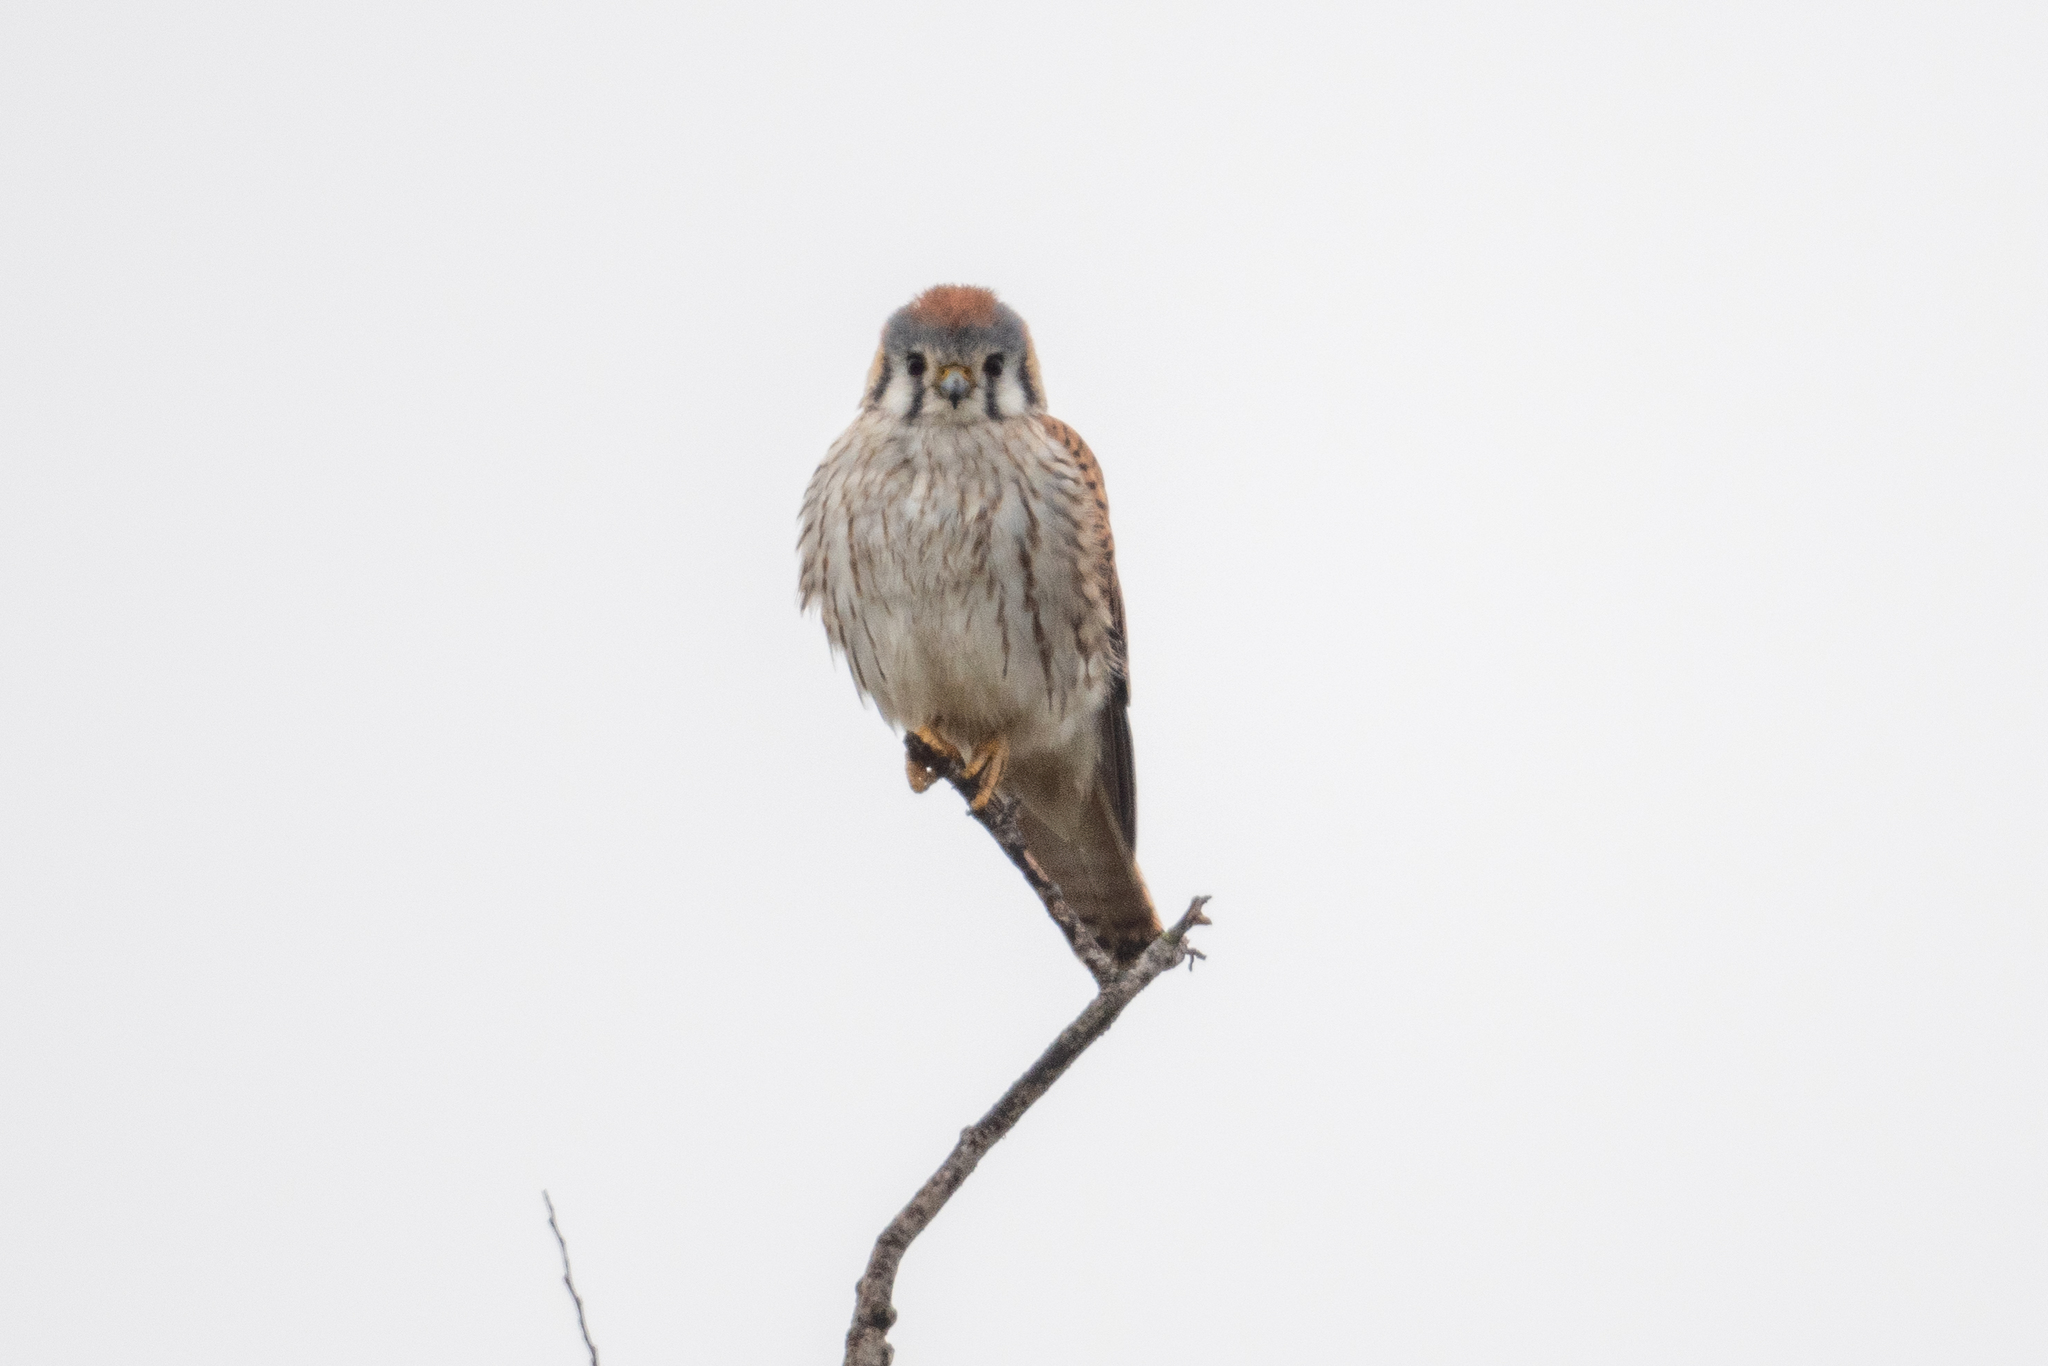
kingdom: Animalia
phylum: Chordata
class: Aves
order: Falconiformes
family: Falconidae
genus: Falco
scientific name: Falco sparverius
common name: American kestrel
